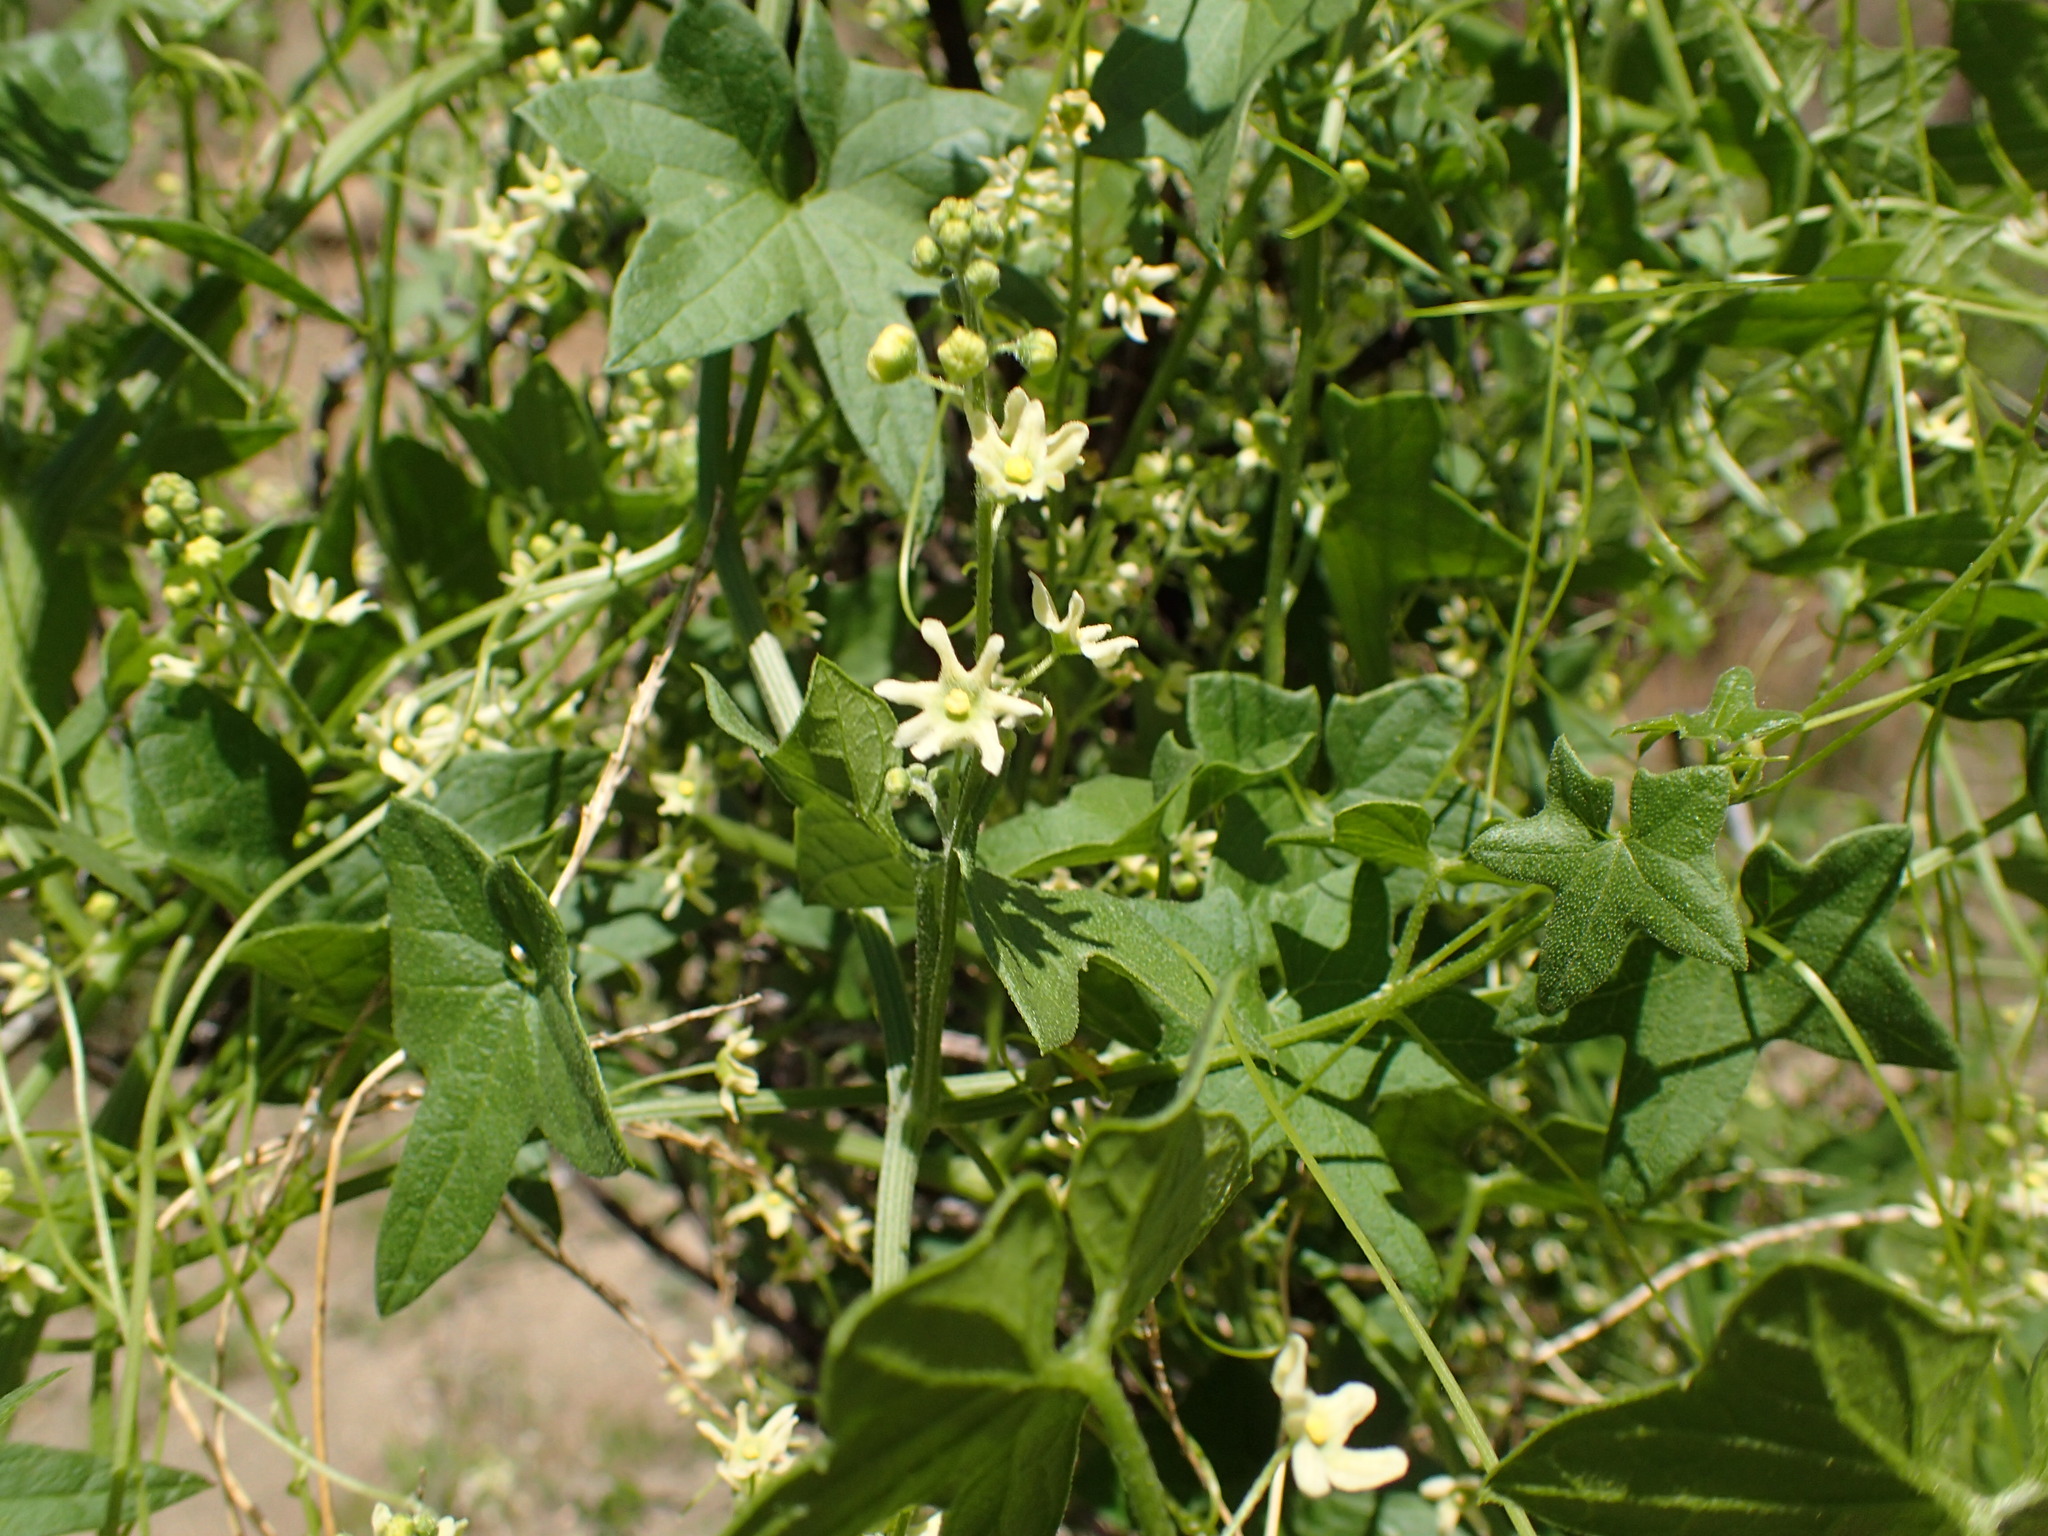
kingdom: Plantae
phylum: Tracheophyta
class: Magnoliopsida
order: Cucurbitales
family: Cucurbitaceae
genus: Marah
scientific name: Marah fabacea
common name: California manroot
